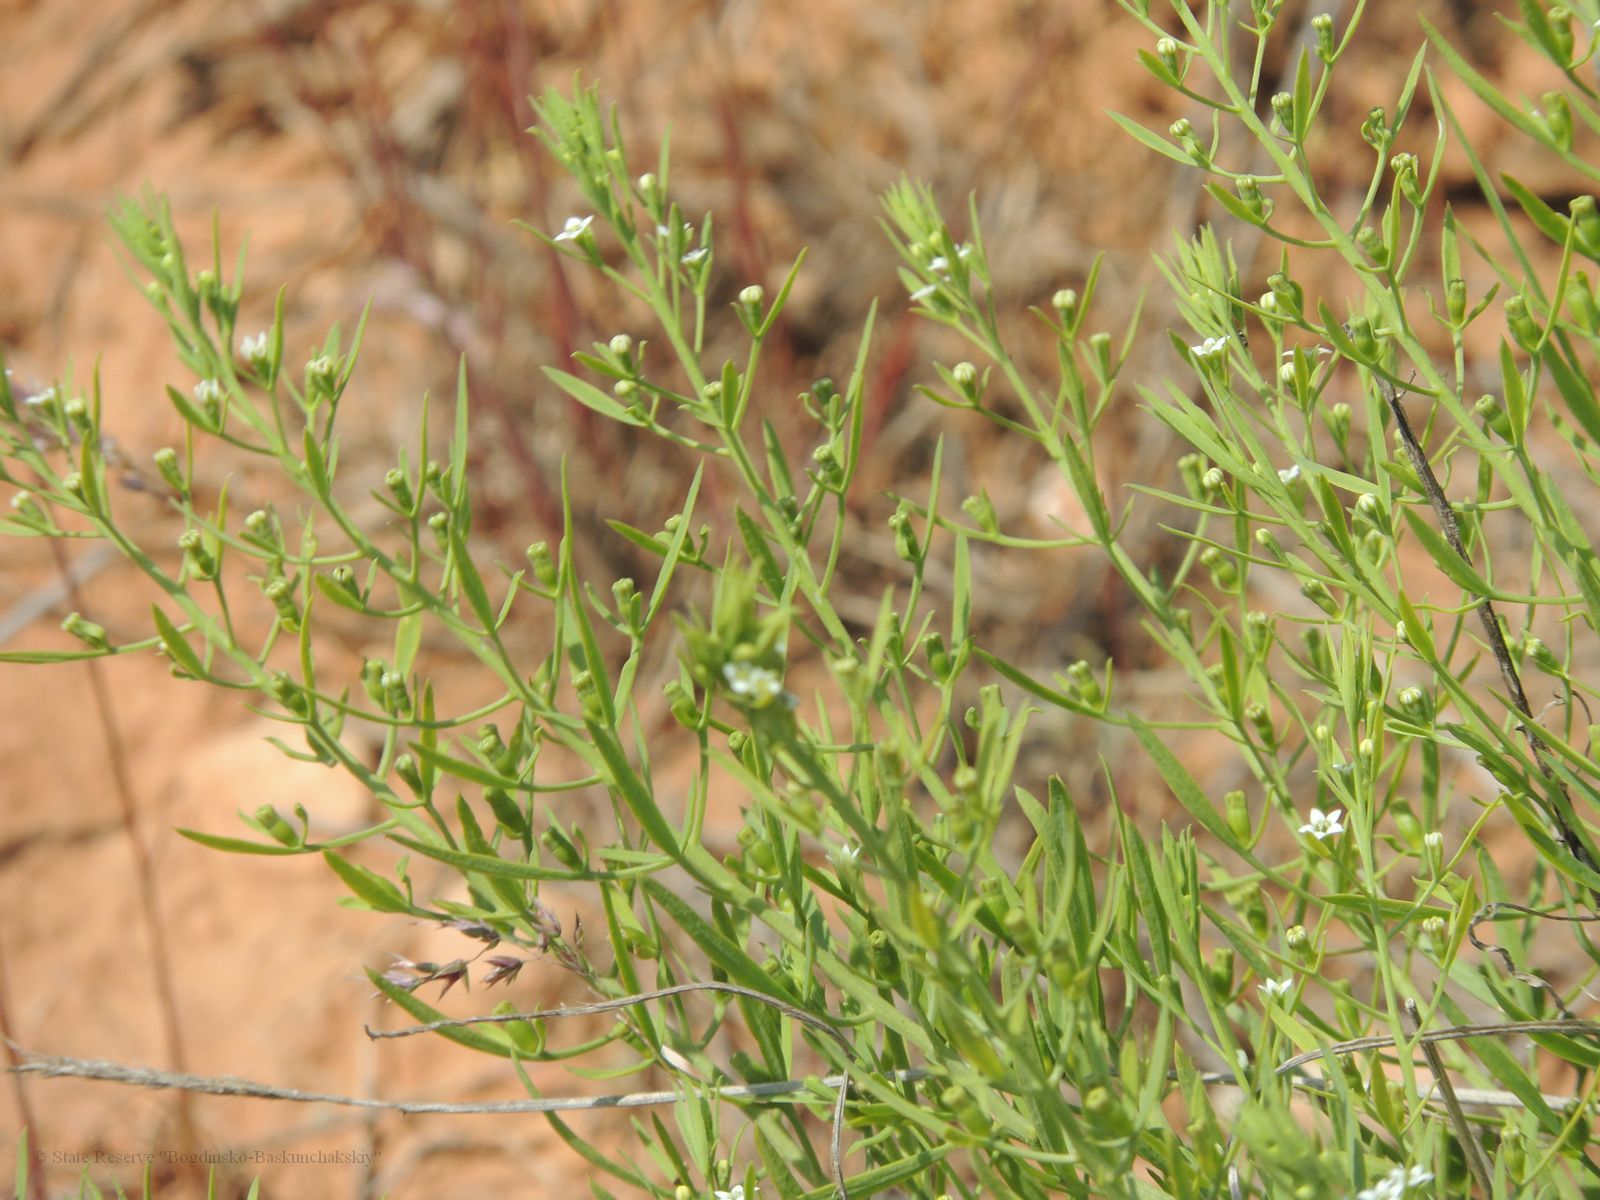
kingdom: Plantae
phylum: Tracheophyta
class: Magnoliopsida
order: Santalales
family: Thesiaceae
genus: Thesium
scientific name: Thesium ramosum
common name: Field thesium
